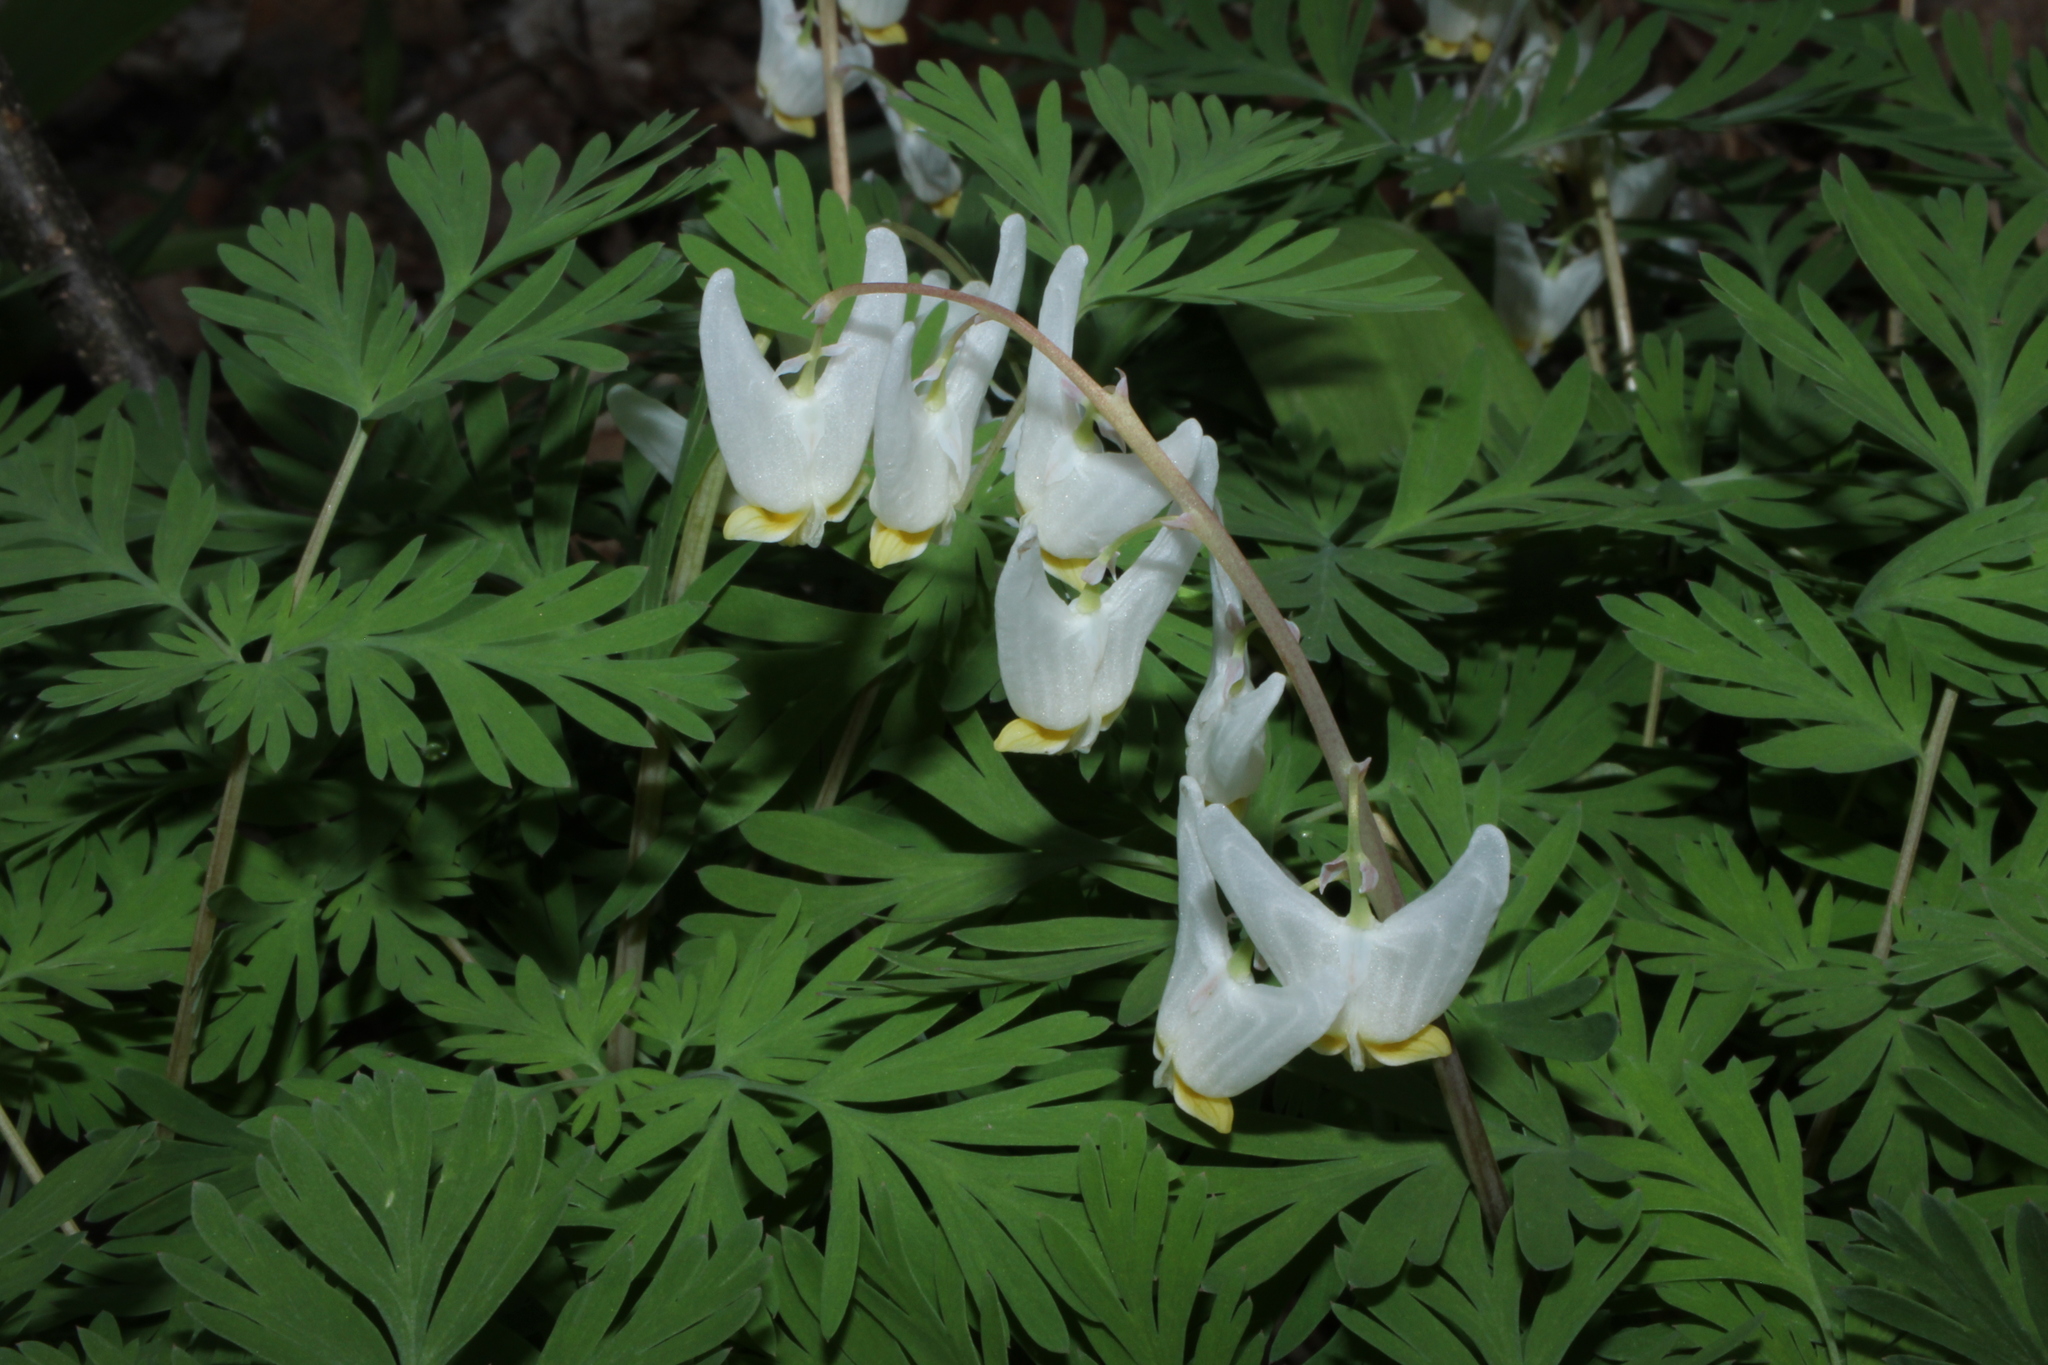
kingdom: Plantae
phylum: Tracheophyta
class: Magnoliopsida
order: Ranunculales
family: Papaveraceae
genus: Dicentra
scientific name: Dicentra cucullaria
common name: Dutchman's breeches
